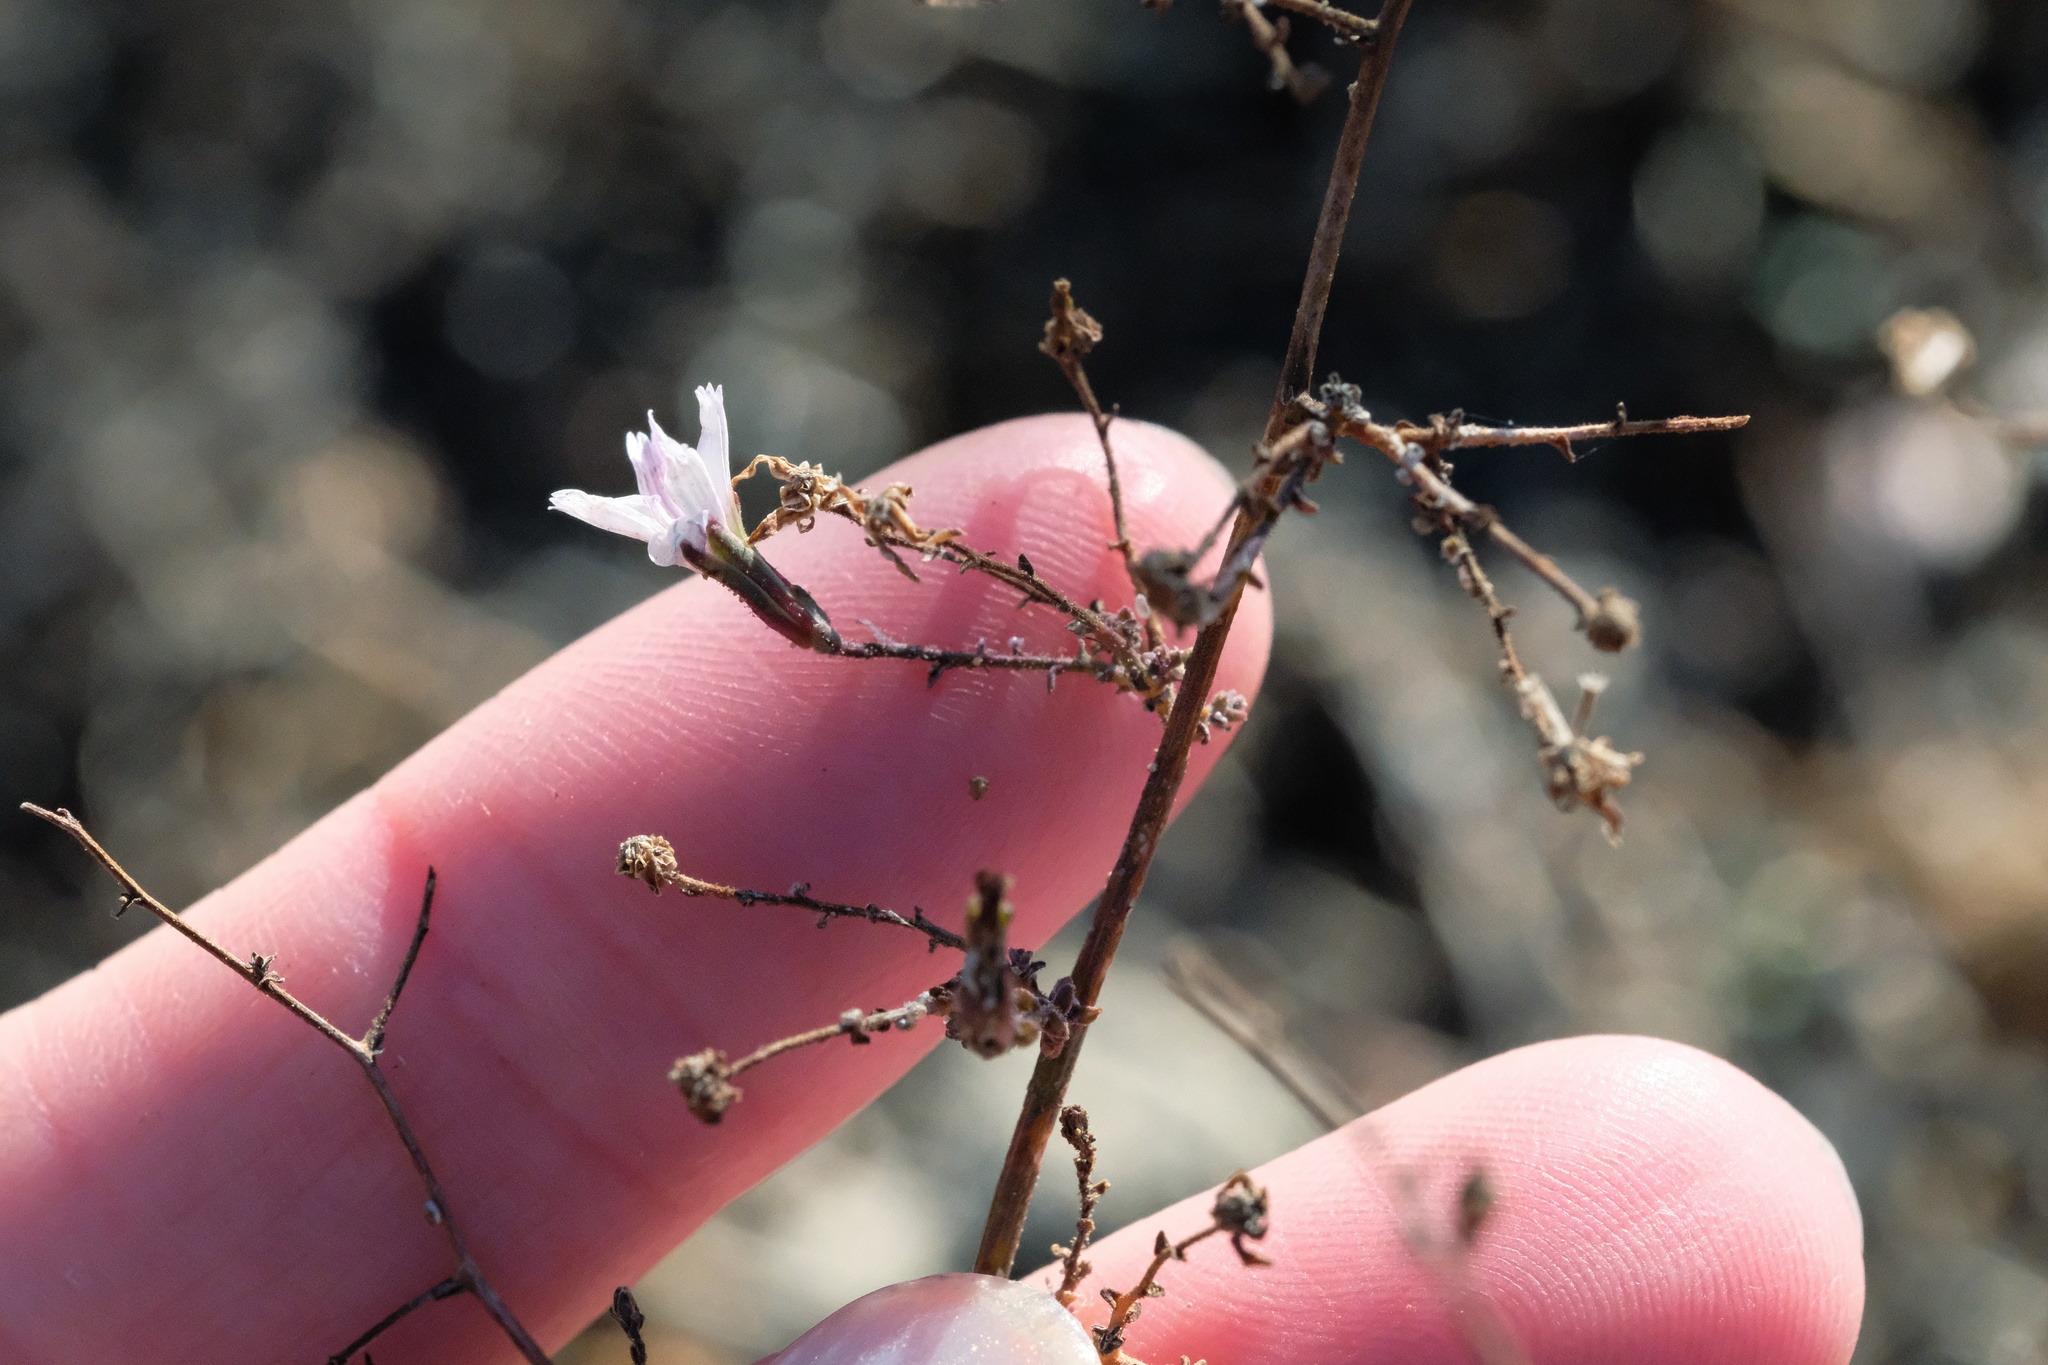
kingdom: Plantae
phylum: Tracheophyta
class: Magnoliopsida
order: Asterales
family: Asteraceae
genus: Stephanomeria
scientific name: Stephanomeria exigua
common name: Small wirelettuce
